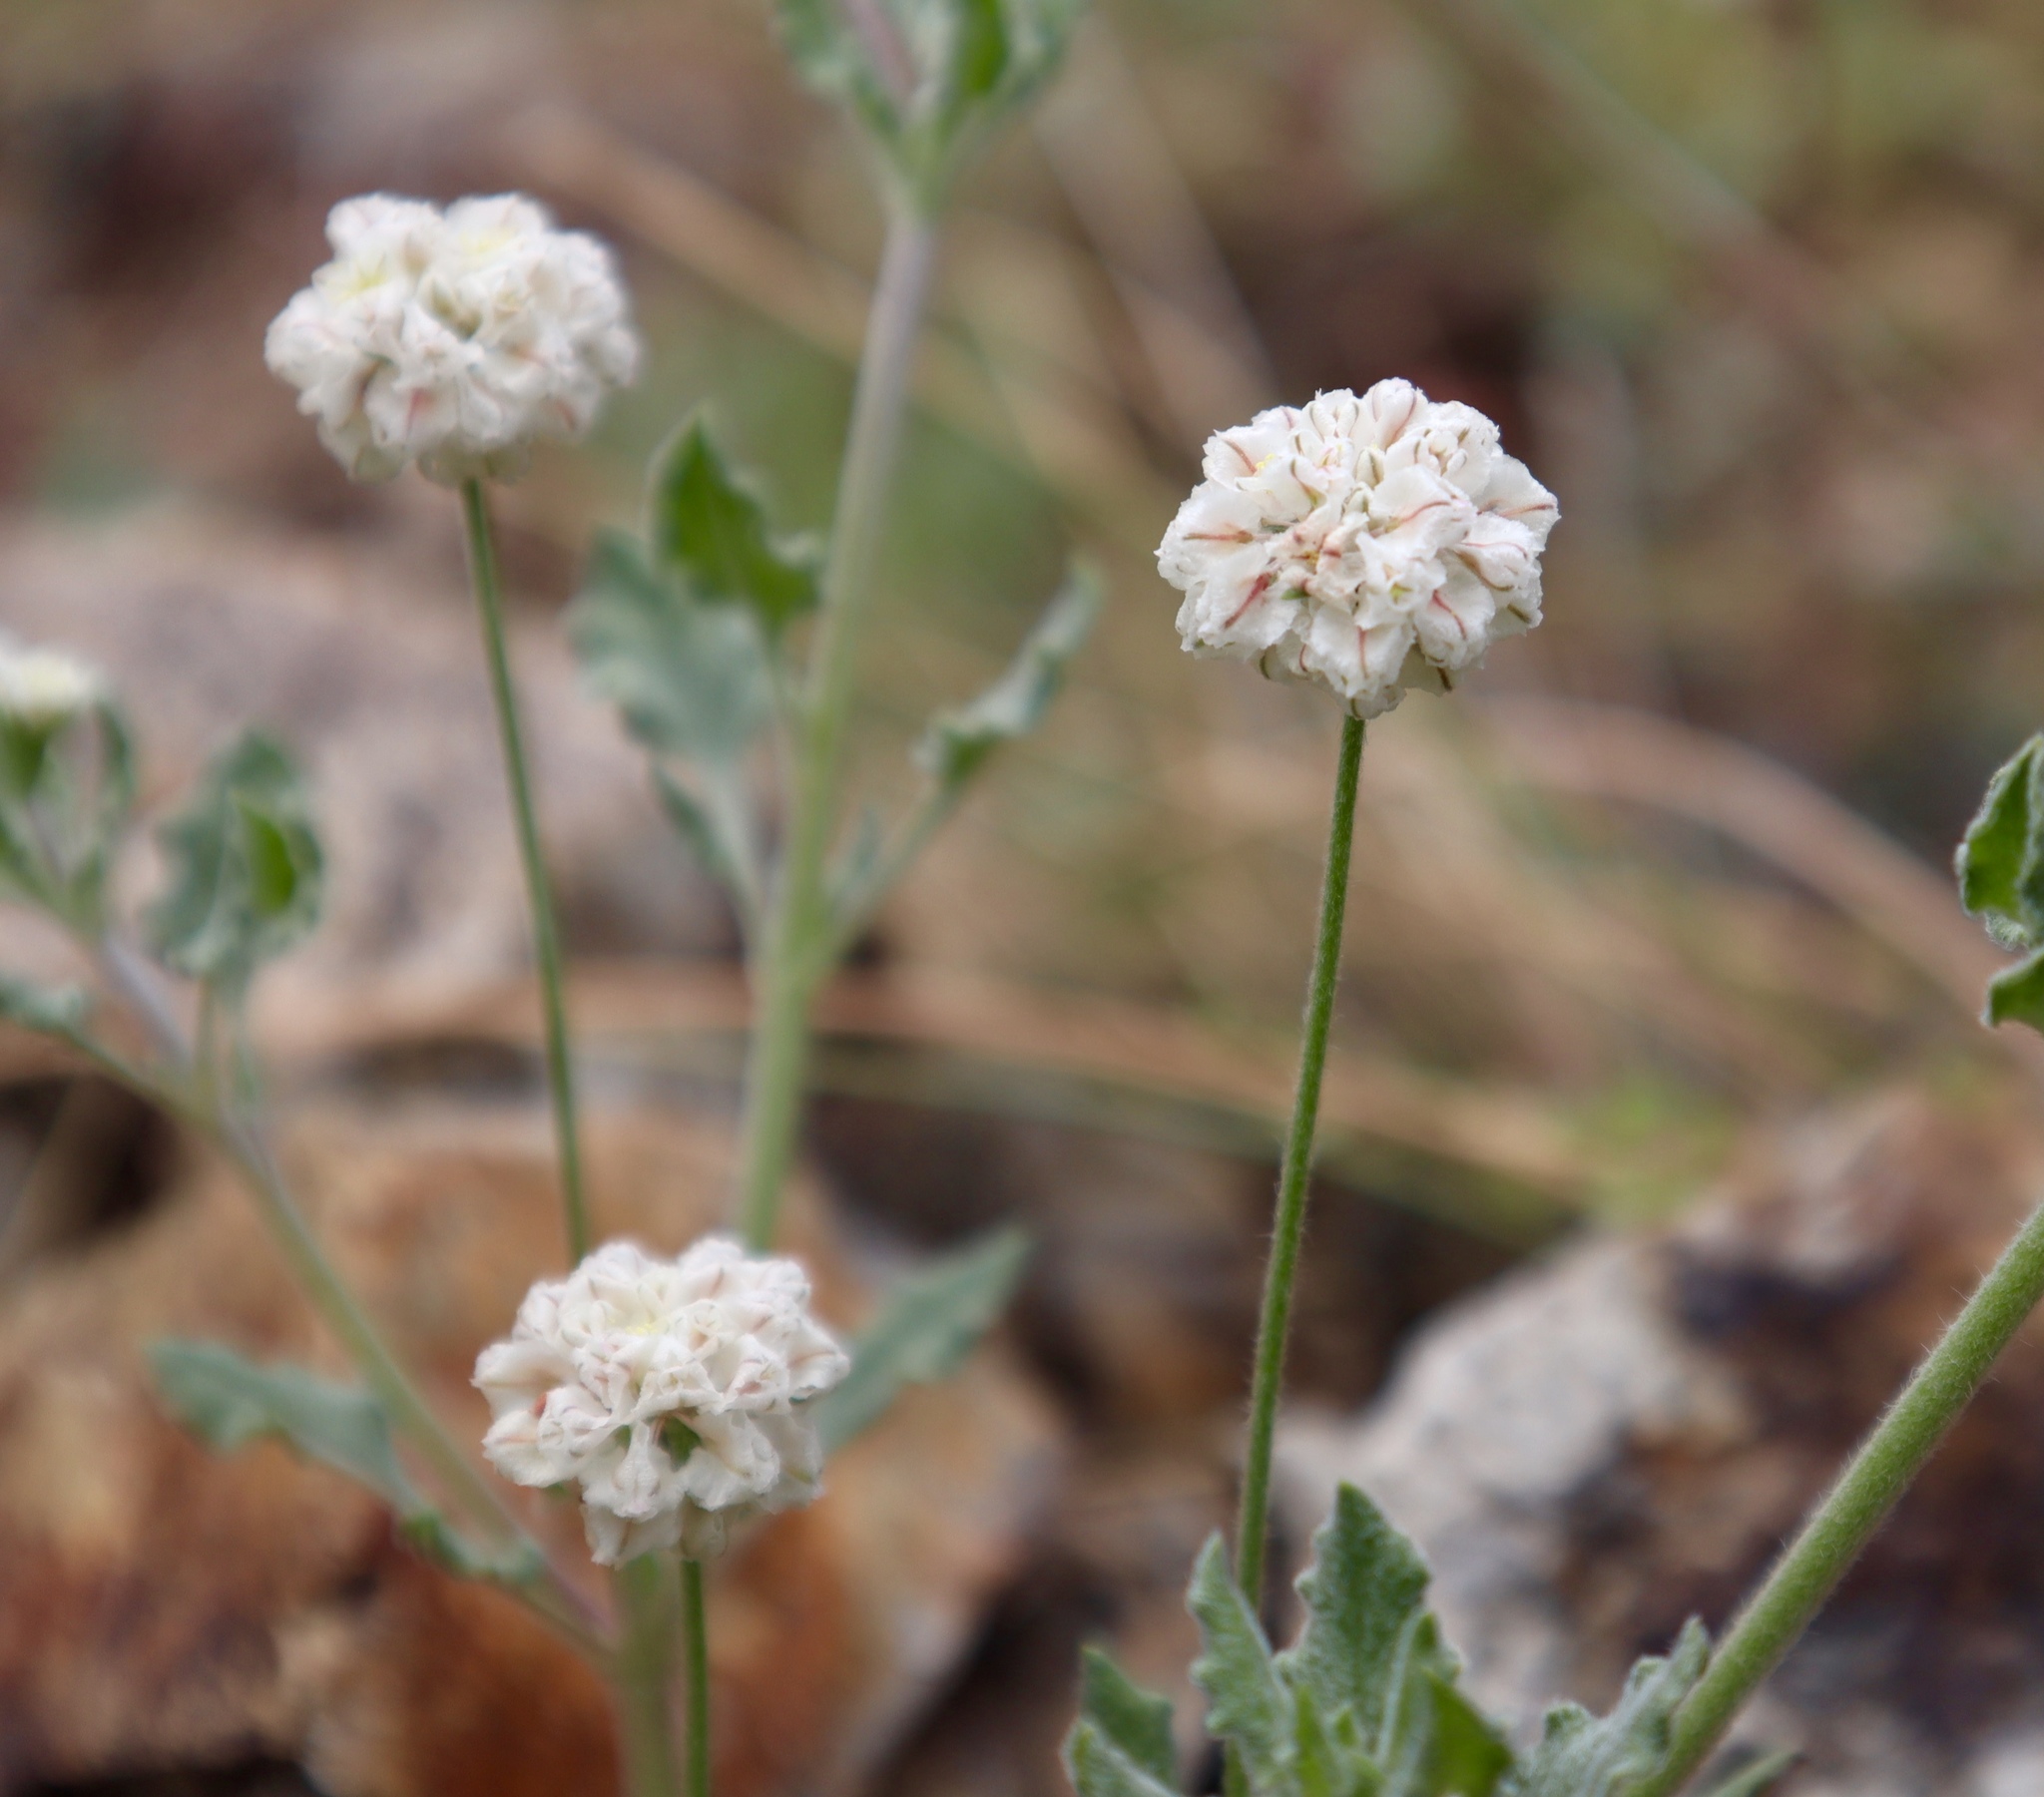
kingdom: Plantae
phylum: Tracheophyta
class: Magnoliopsida
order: Caryophyllales
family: Polygonaceae
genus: Eriogonum
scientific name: Eriogonum abertianum
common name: Abert's wild buckwheat
